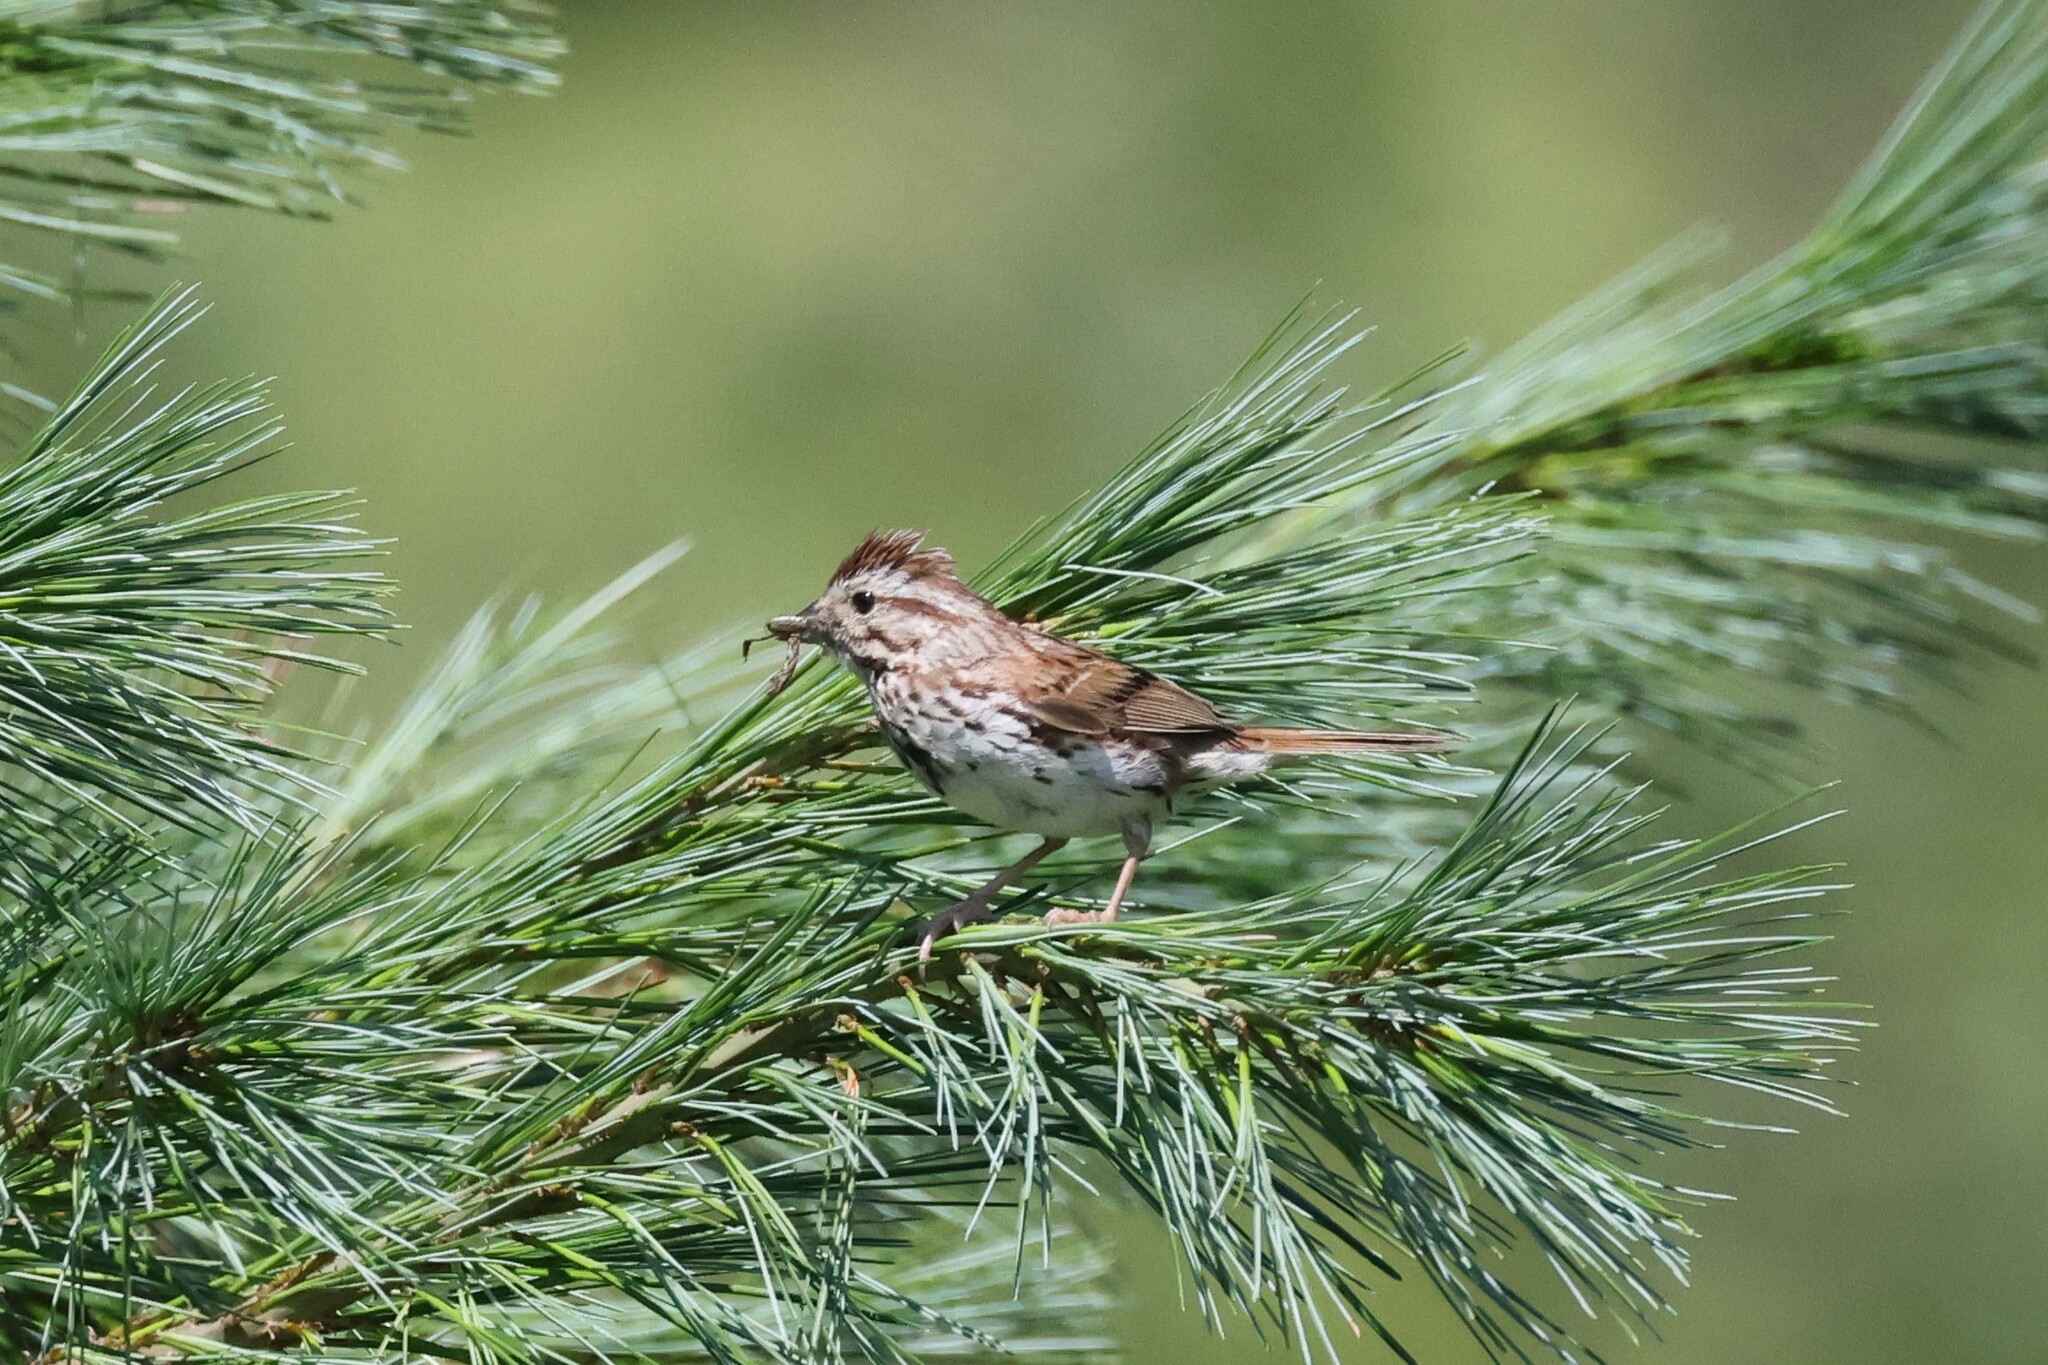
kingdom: Animalia
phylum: Chordata
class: Aves
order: Passeriformes
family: Passerellidae
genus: Melospiza
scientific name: Melospiza melodia
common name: Song sparrow
